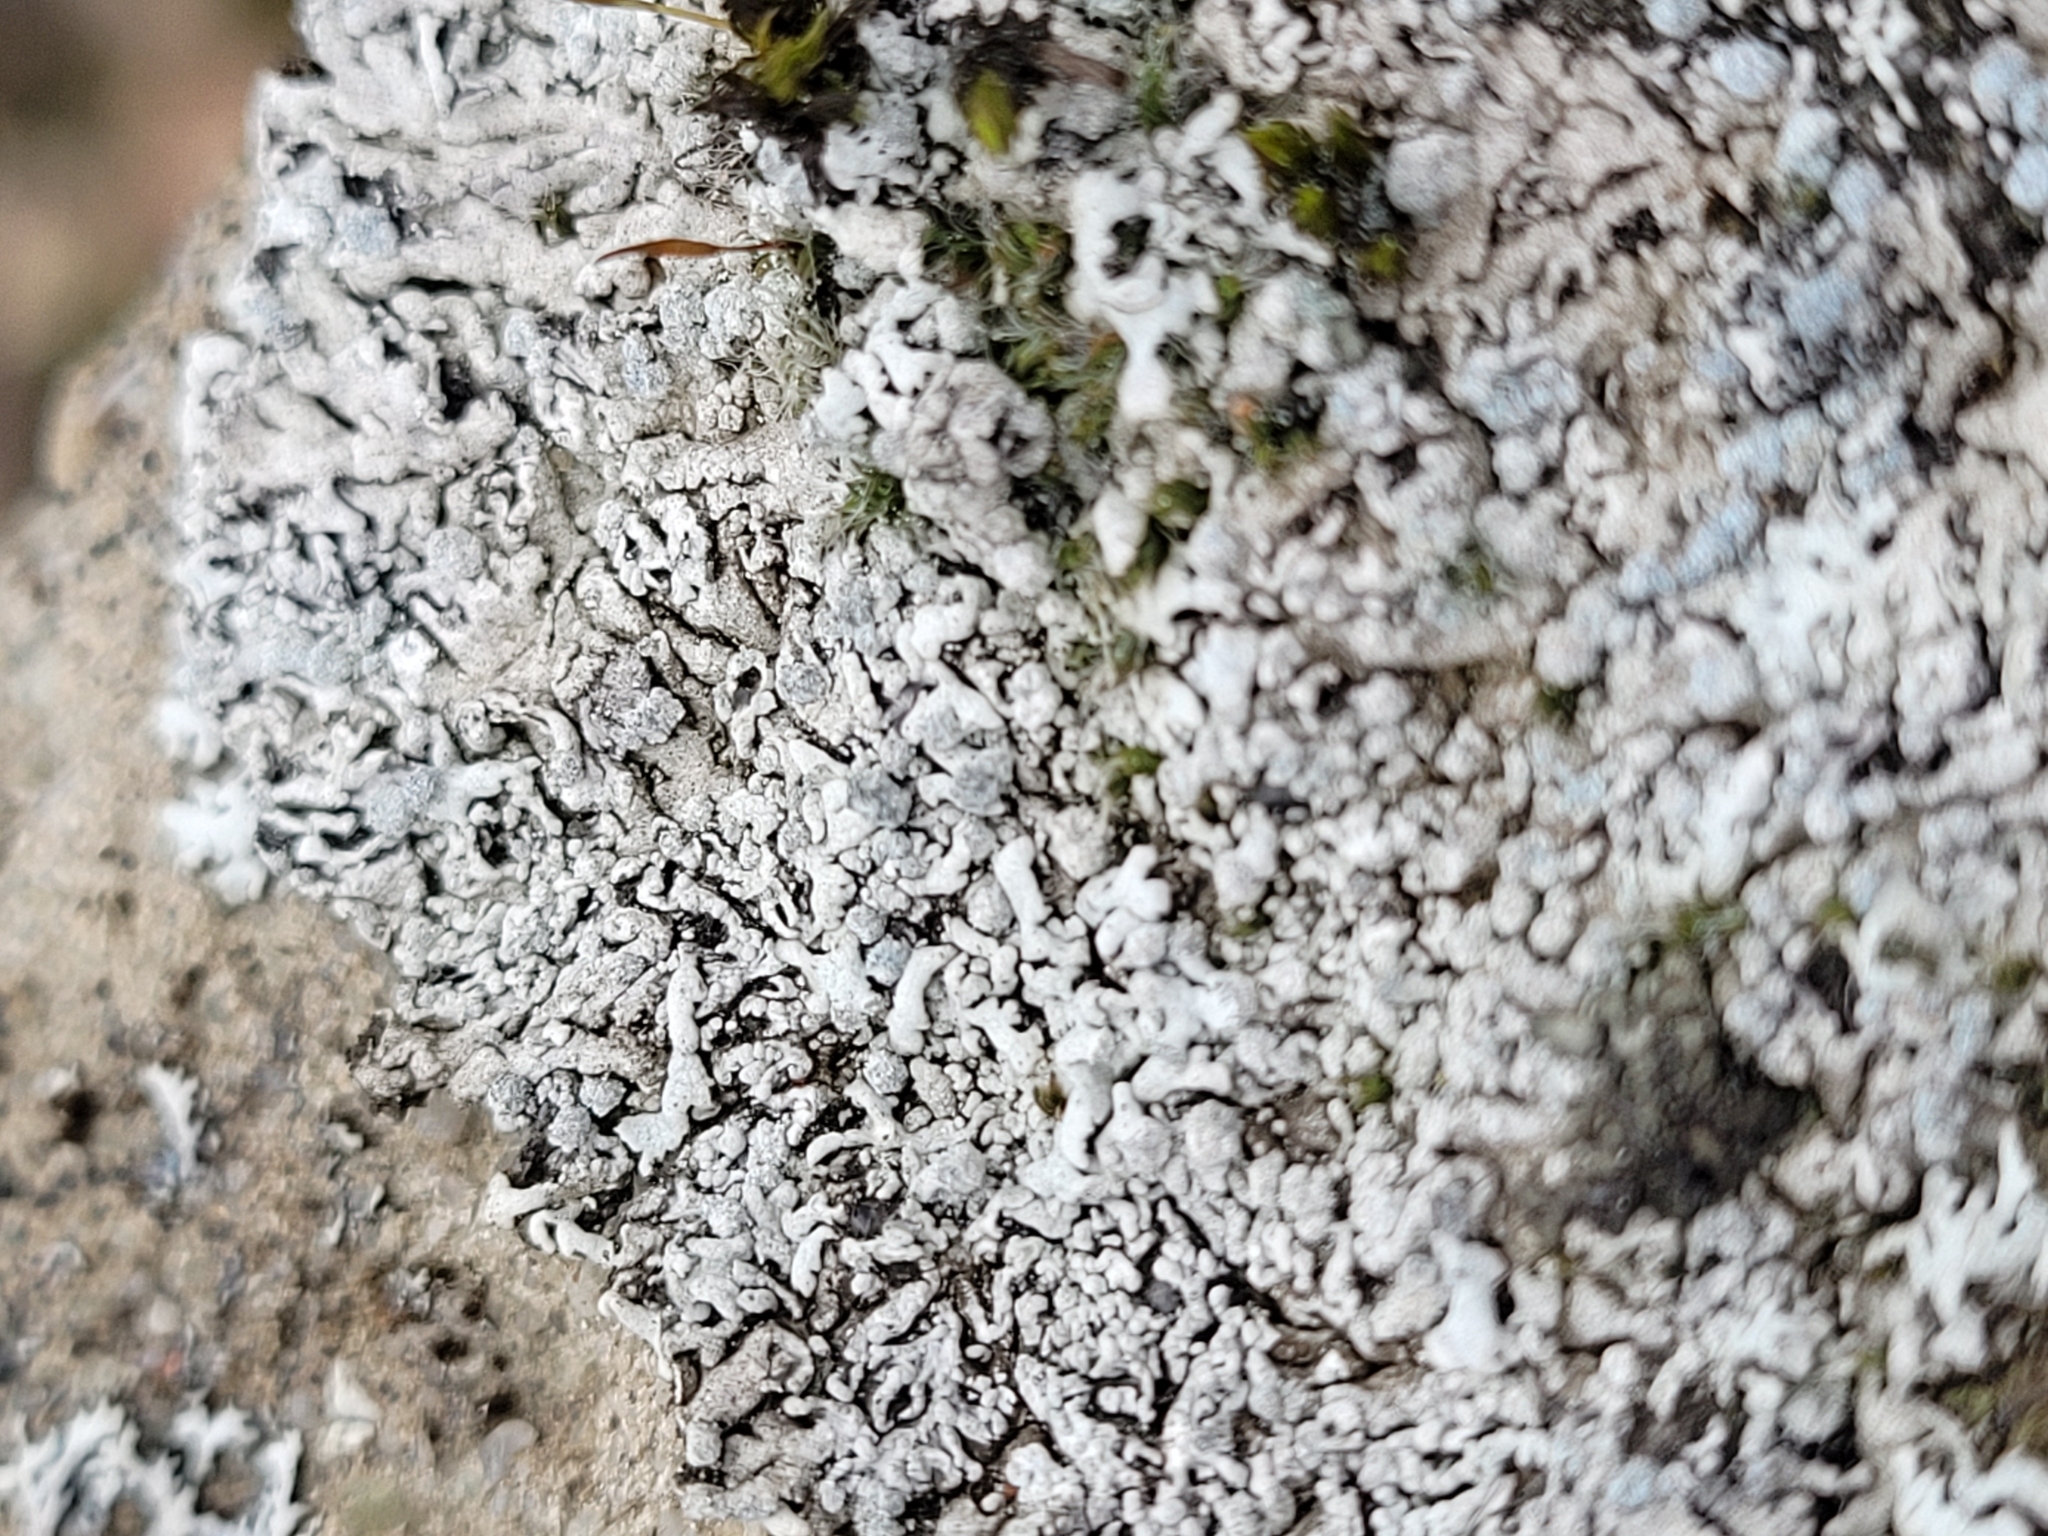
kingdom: Fungi
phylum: Ascomycota
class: Lecanoromycetes
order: Caliciales
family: Physciaceae
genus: Physcia
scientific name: Physcia caesia
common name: Blue-gray rosette lichen
